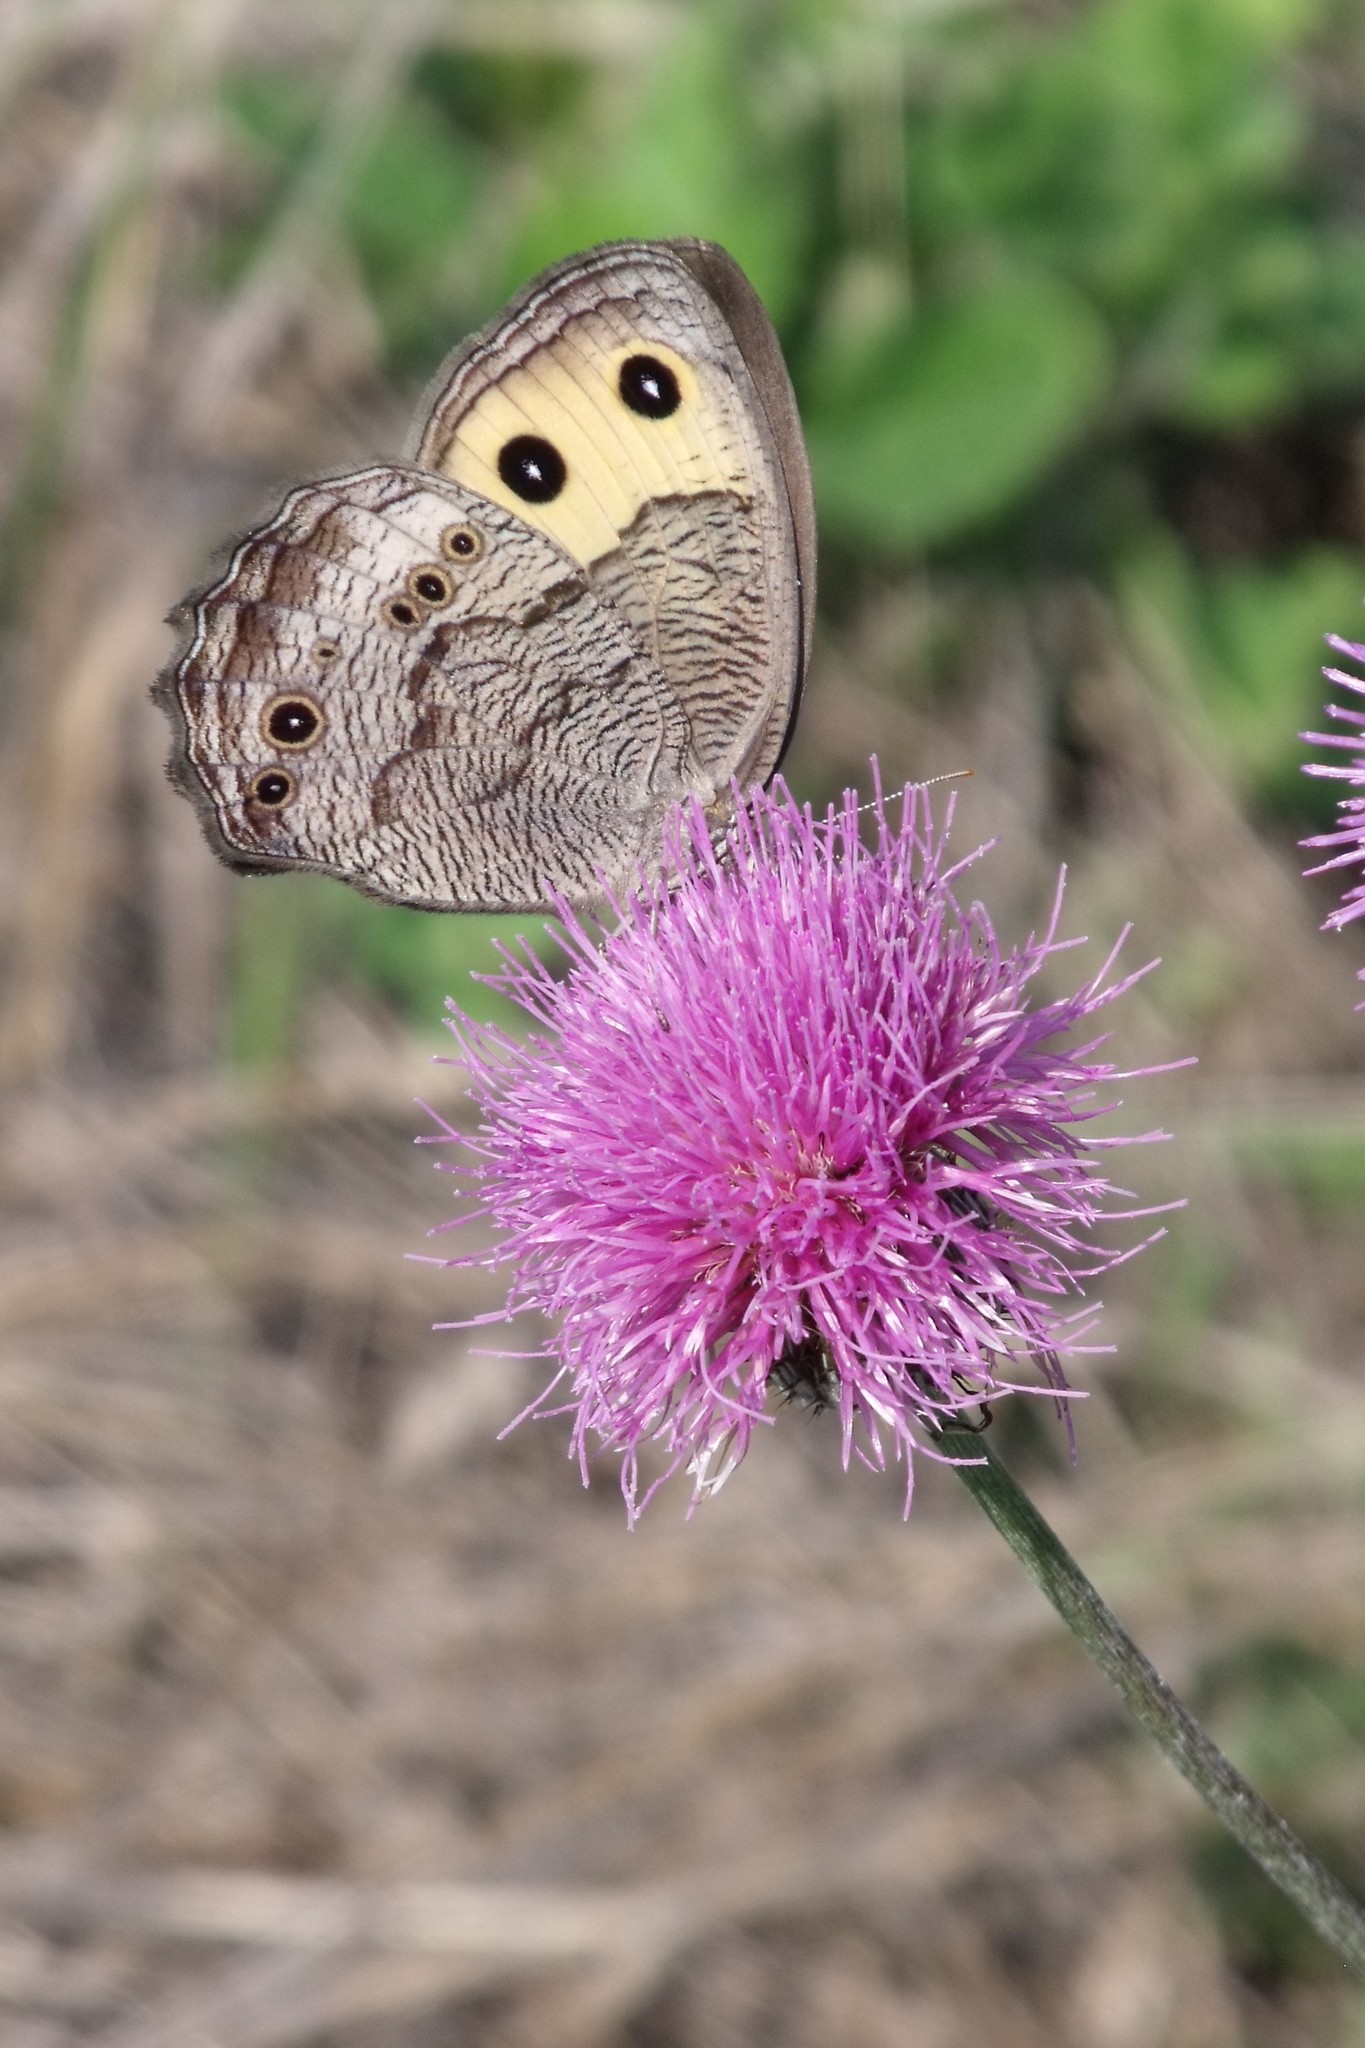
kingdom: Animalia
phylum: Arthropoda
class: Insecta
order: Lepidoptera
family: Nymphalidae
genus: Cercyonis
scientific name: Cercyonis pegala
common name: Common wood-nymph
